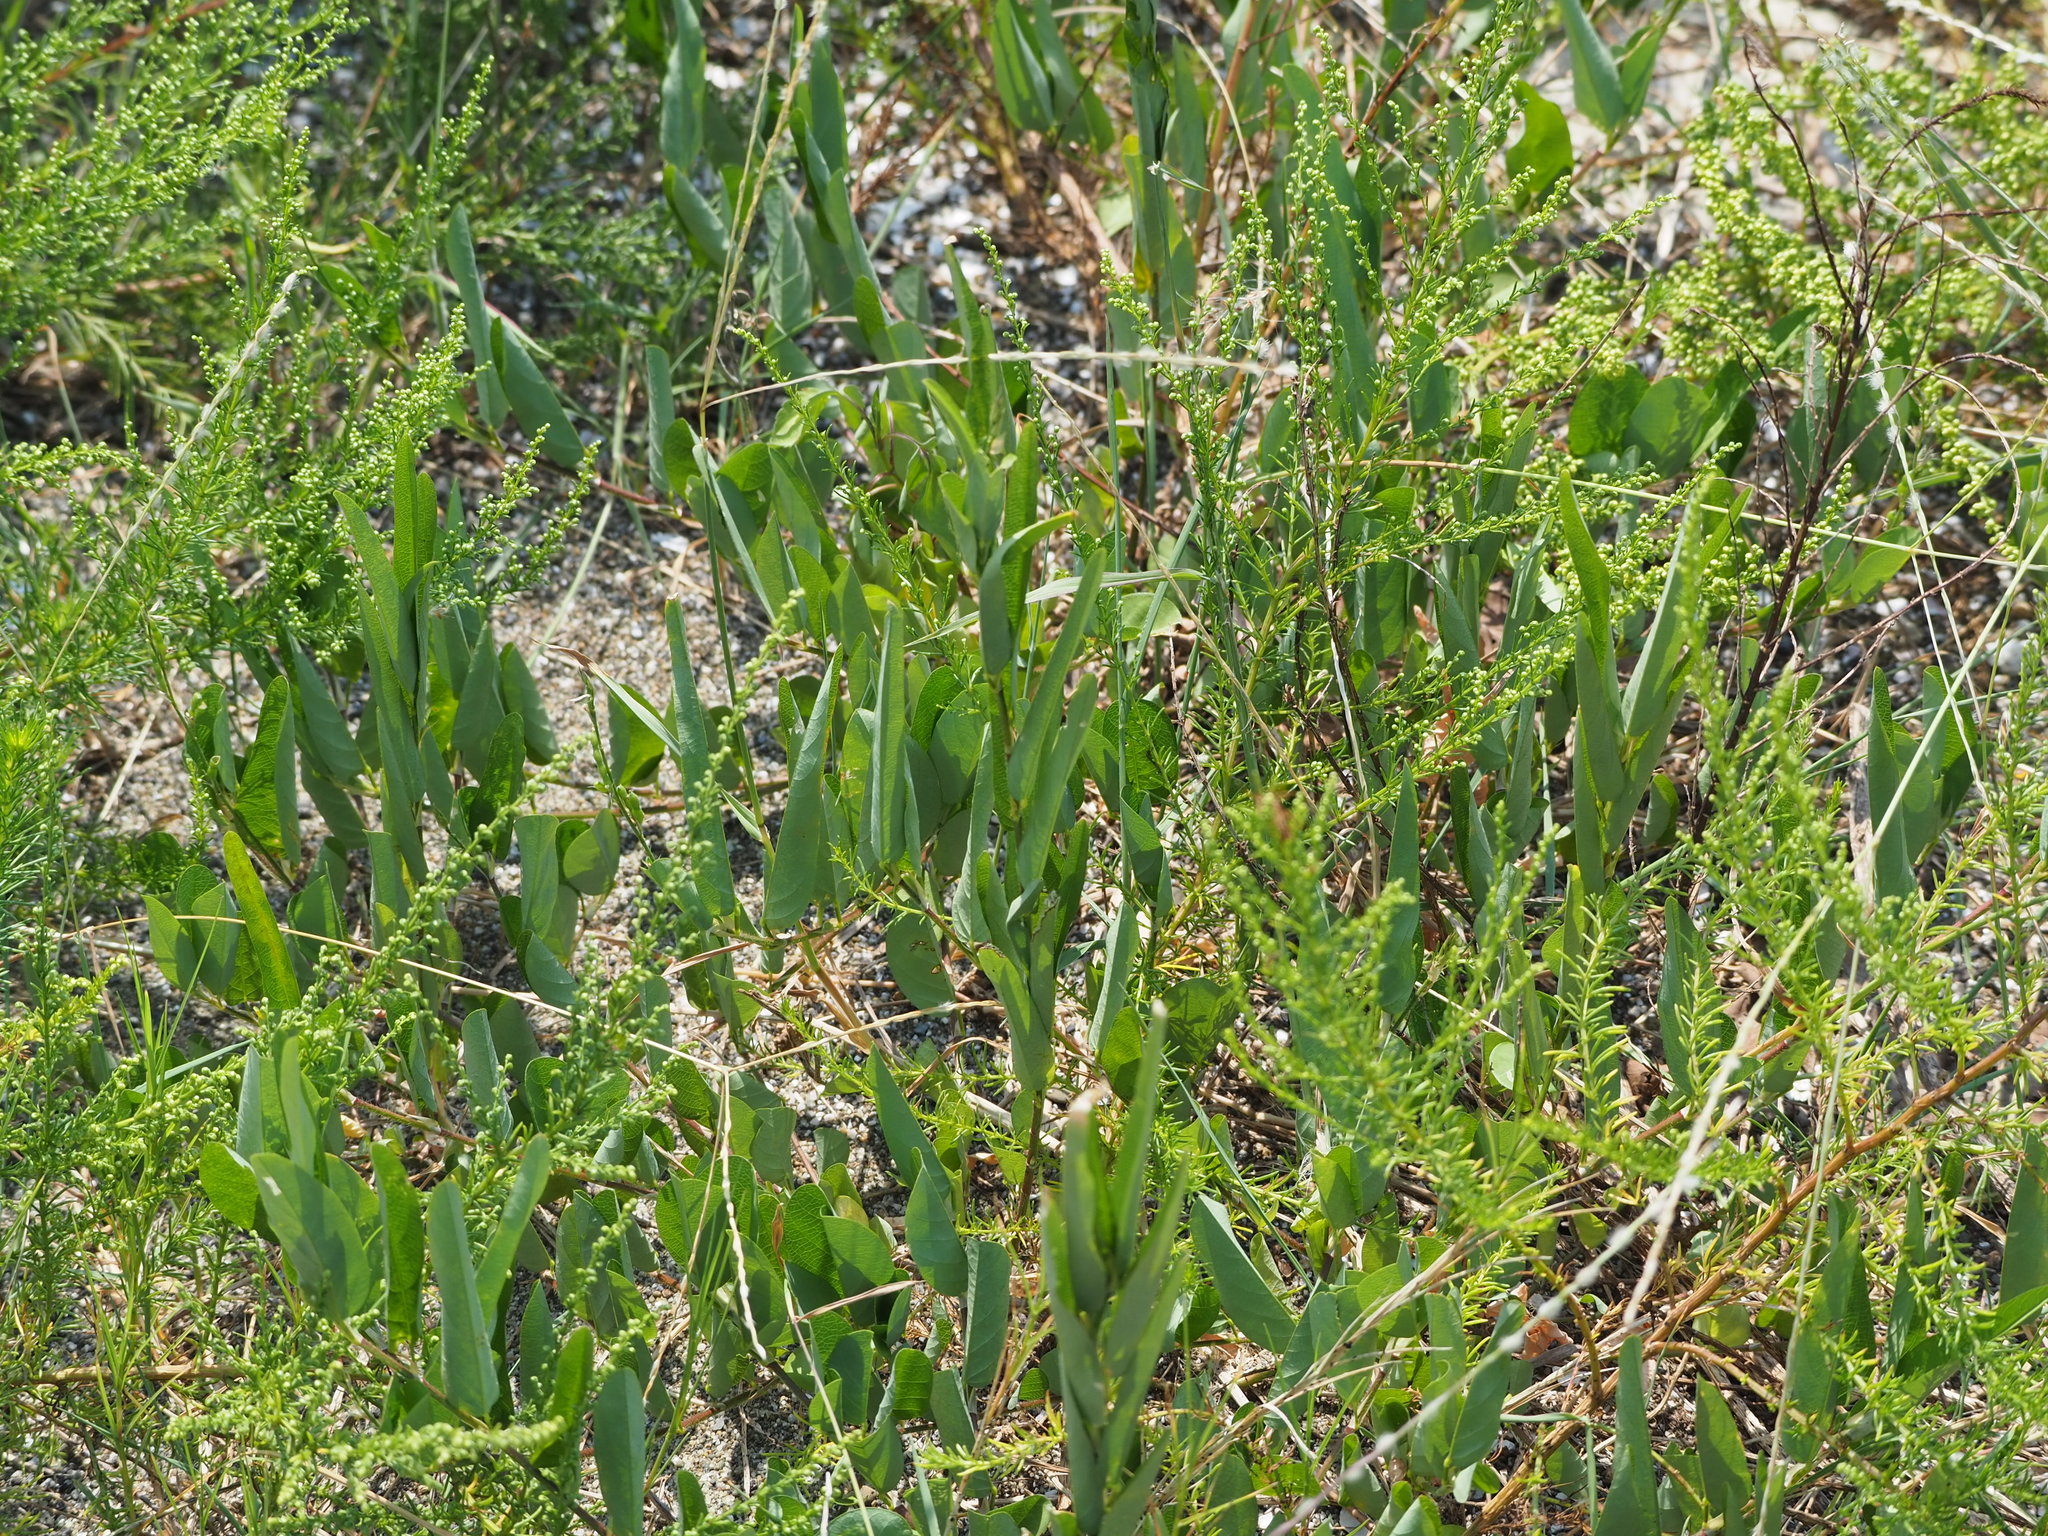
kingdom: Plantae
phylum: Tracheophyta
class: Magnoliopsida
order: Fabales
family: Fabaceae
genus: Alysicarpus
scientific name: Alysicarpus ovalifolius
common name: Alyce clover
